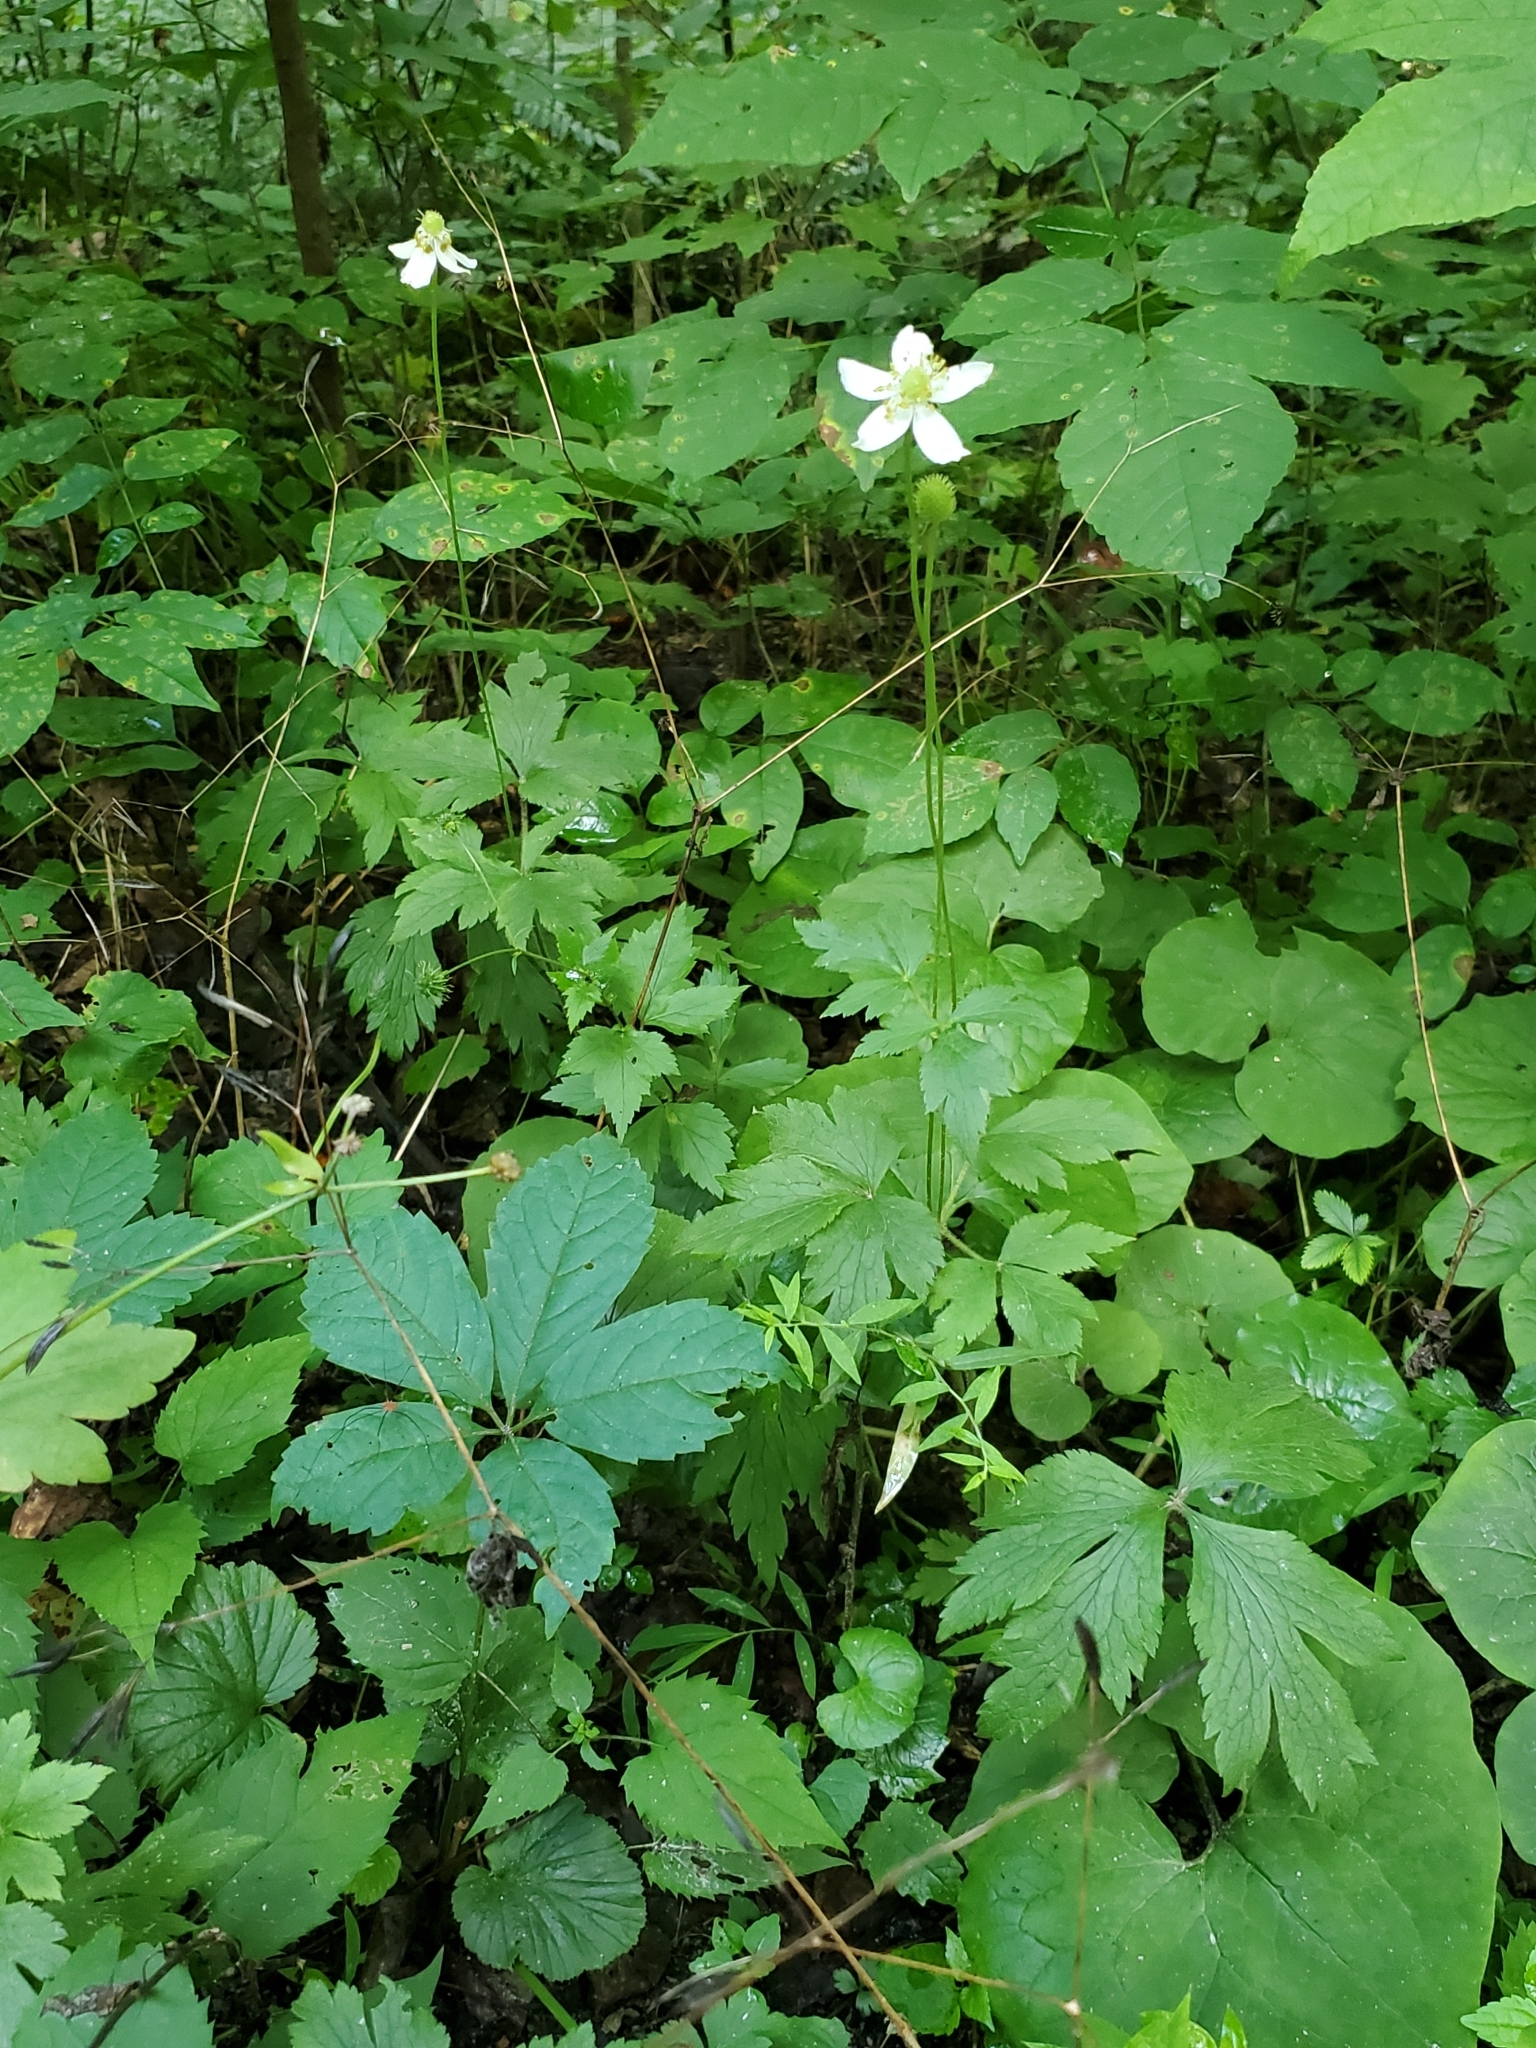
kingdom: Plantae
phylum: Tracheophyta
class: Magnoliopsida
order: Ranunculales
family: Ranunculaceae
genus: Anemone
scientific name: Anemone virginiana
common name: Tall anemone
